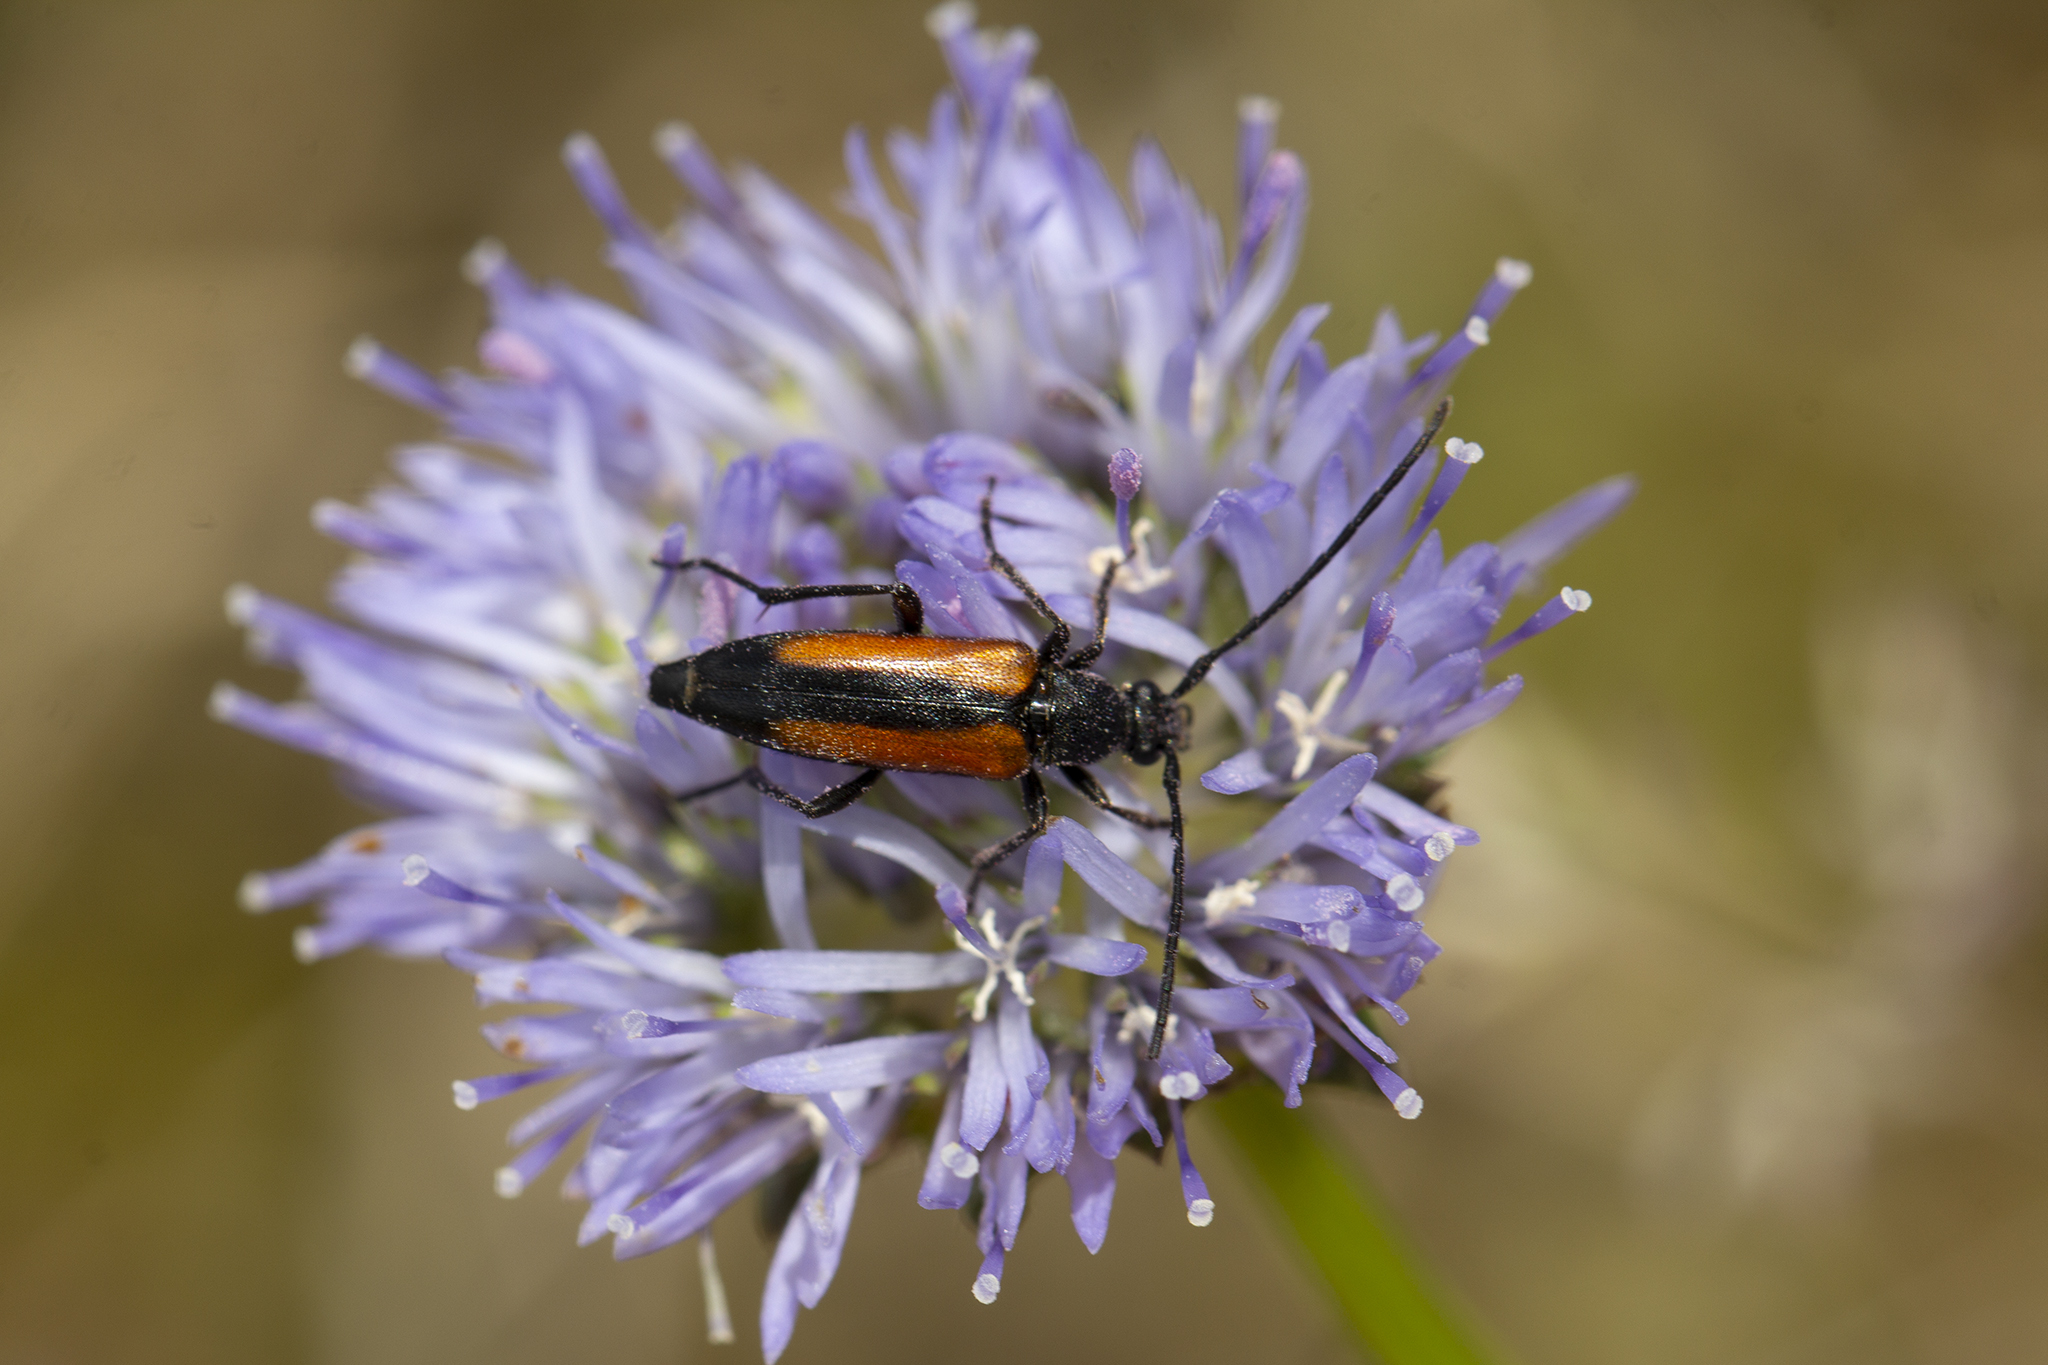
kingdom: Animalia
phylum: Arthropoda
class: Insecta
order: Coleoptera
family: Cerambycidae
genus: Stenurella
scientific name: Stenurella melanura
